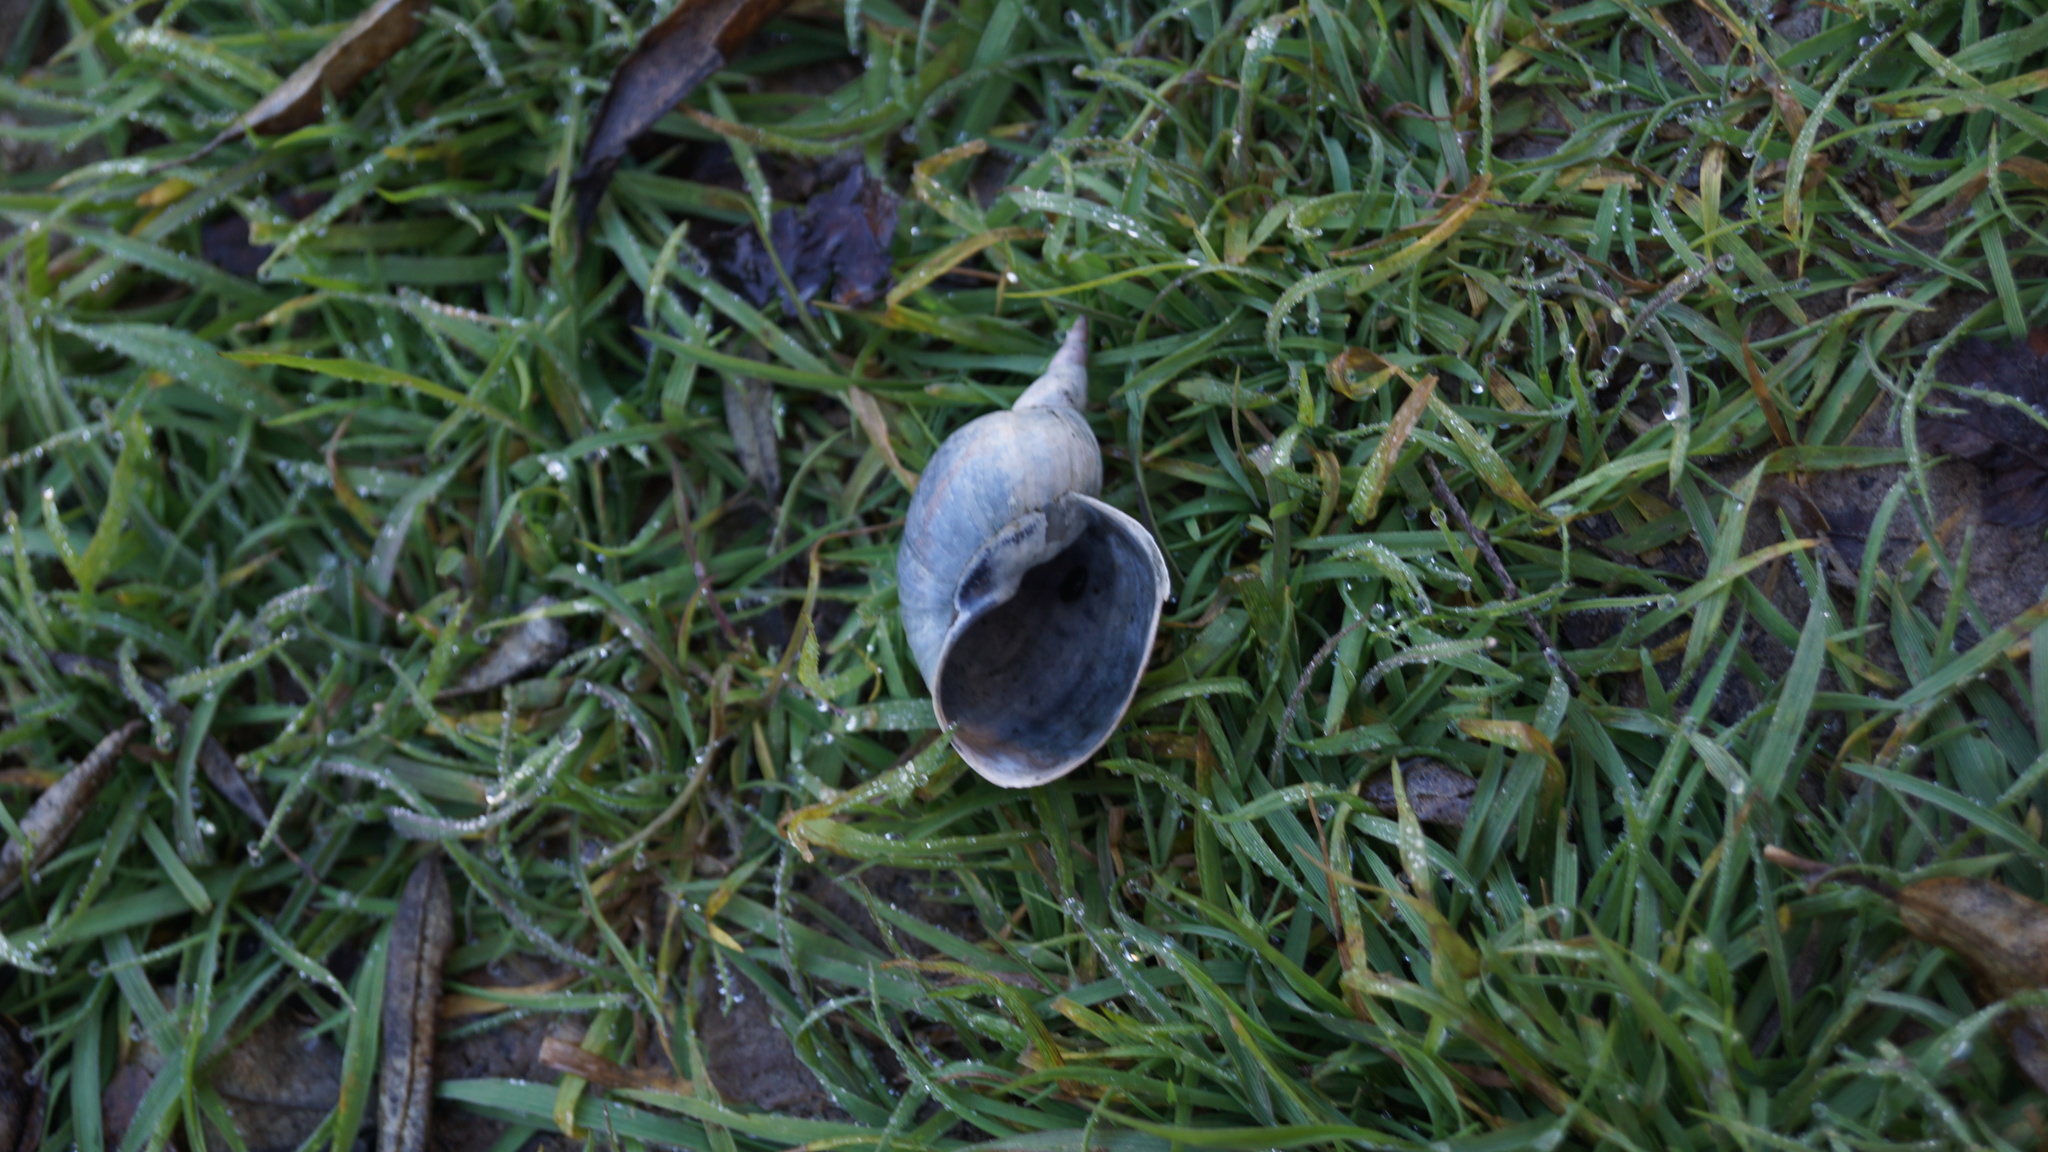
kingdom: Animalia
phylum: Mollusca
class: Gastropoda
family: Lymnaeidae
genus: Lymnaea
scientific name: Lymnaea stagnalis
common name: Great pond snail
